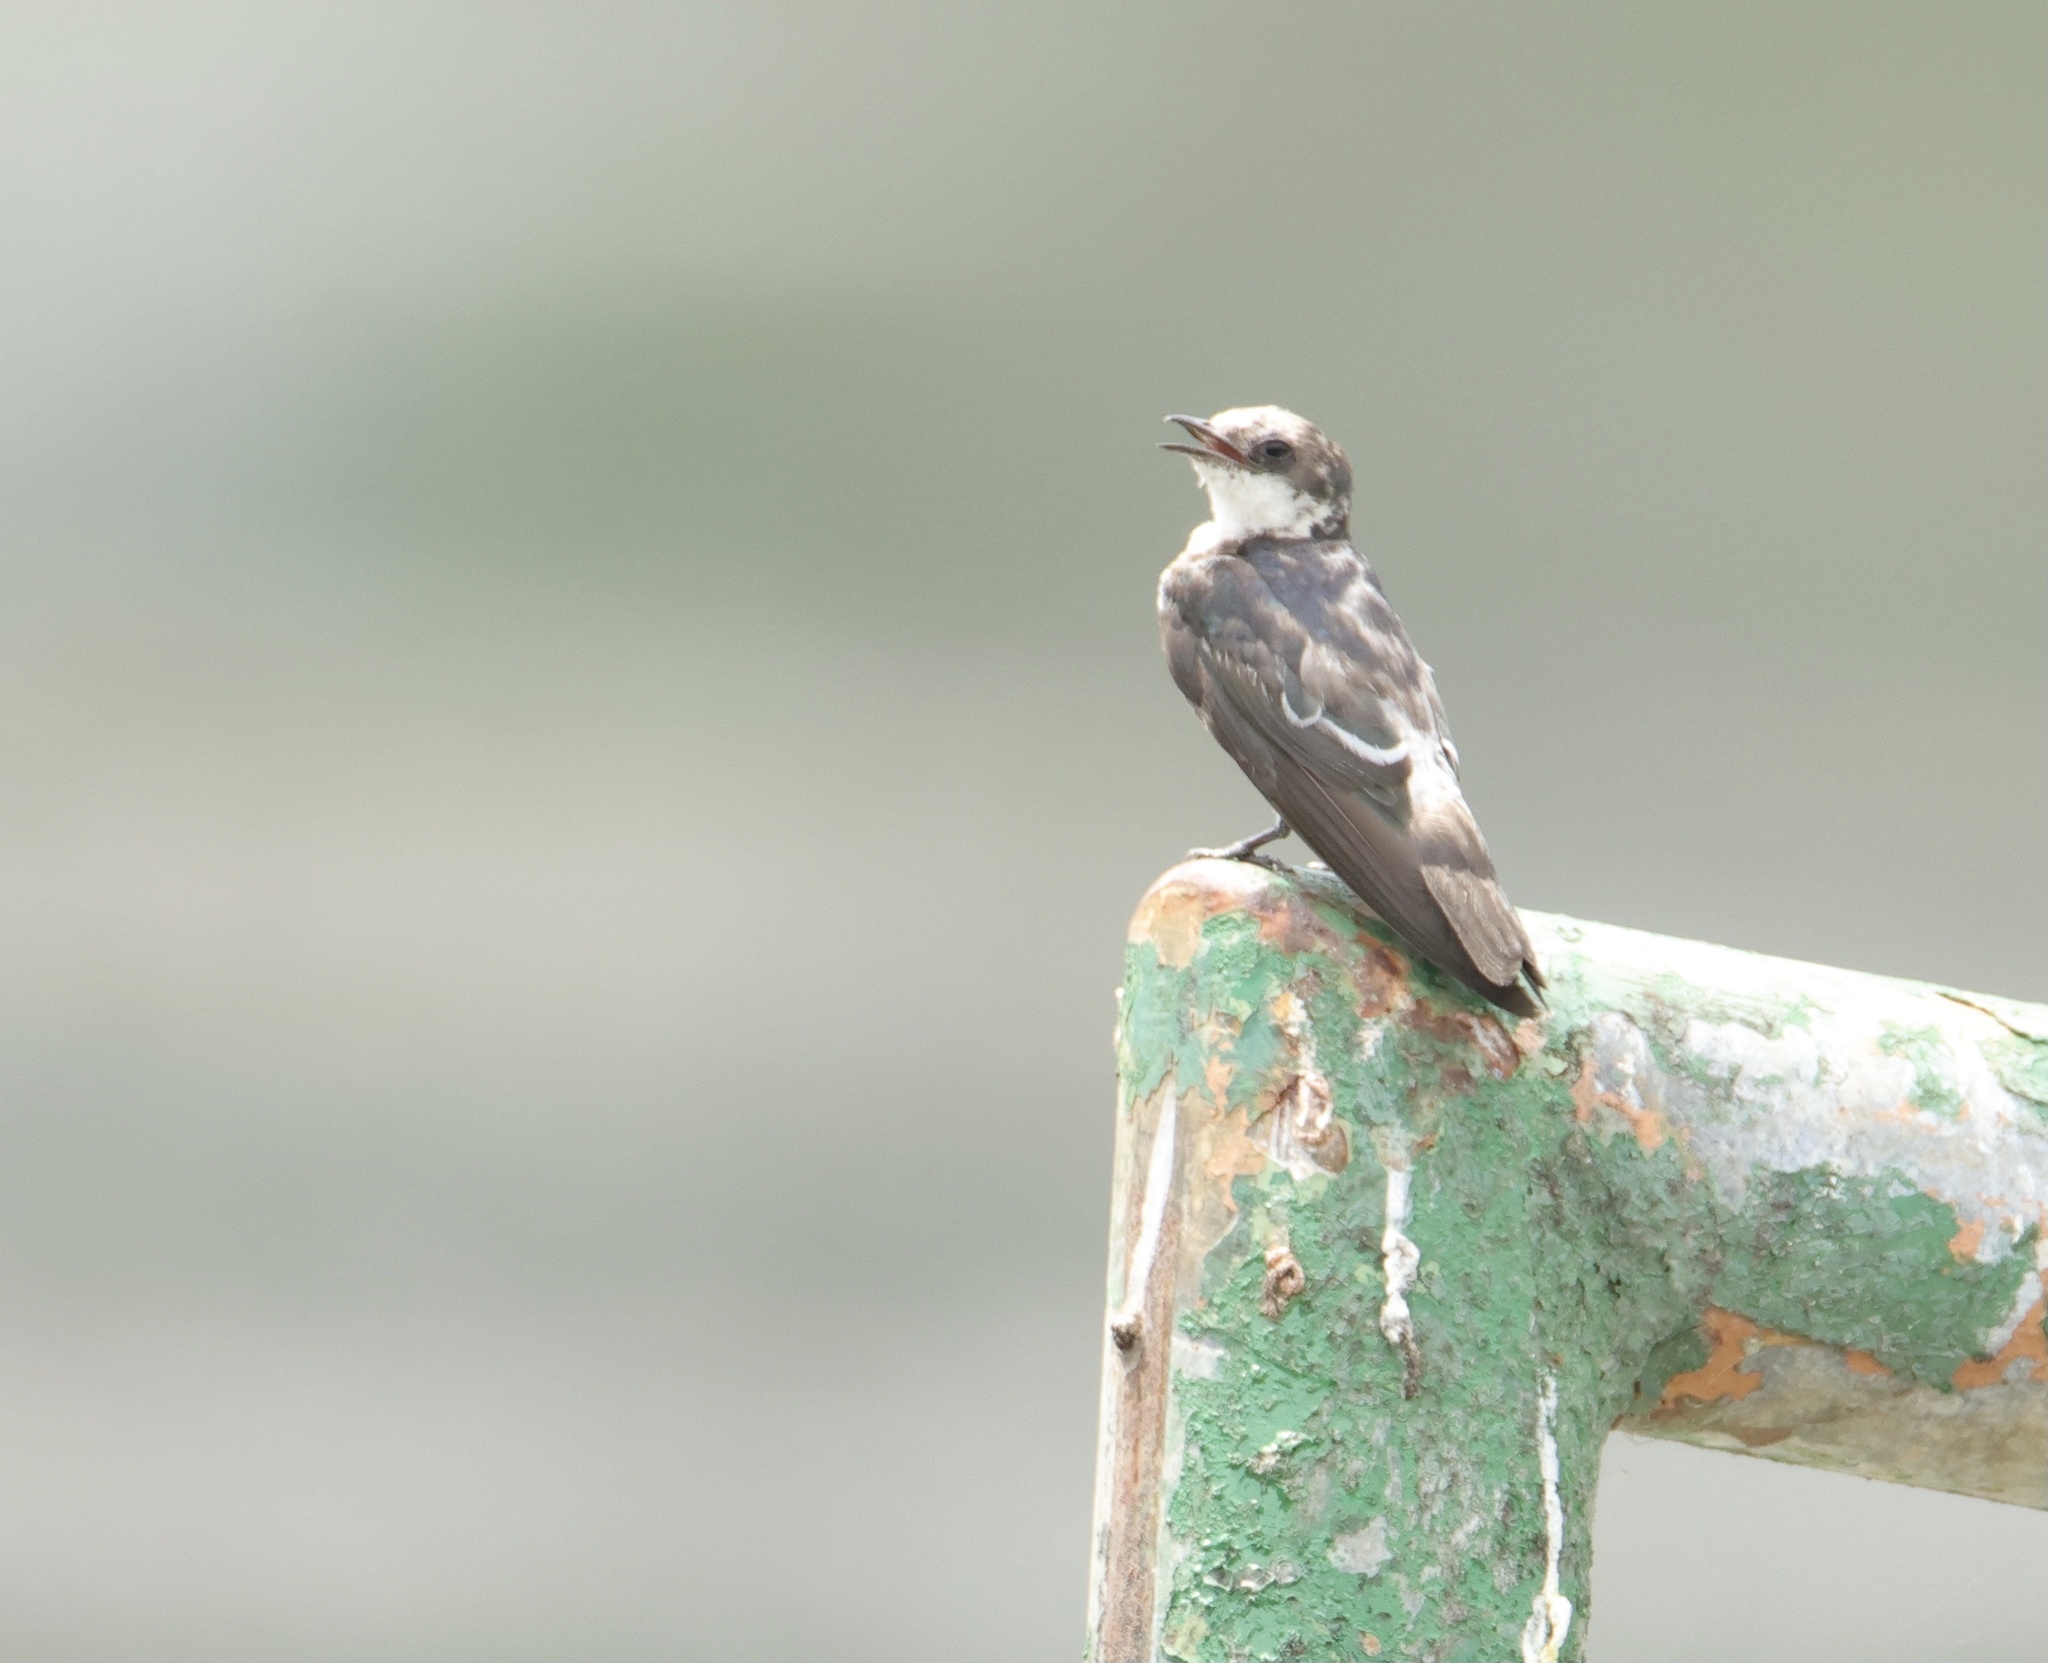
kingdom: Animalia
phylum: Chordata
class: Aves
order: Passeriformes
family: Hirundinidae
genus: Tachycineta
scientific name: Tachycineta albilinea
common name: Mangrove swallow
